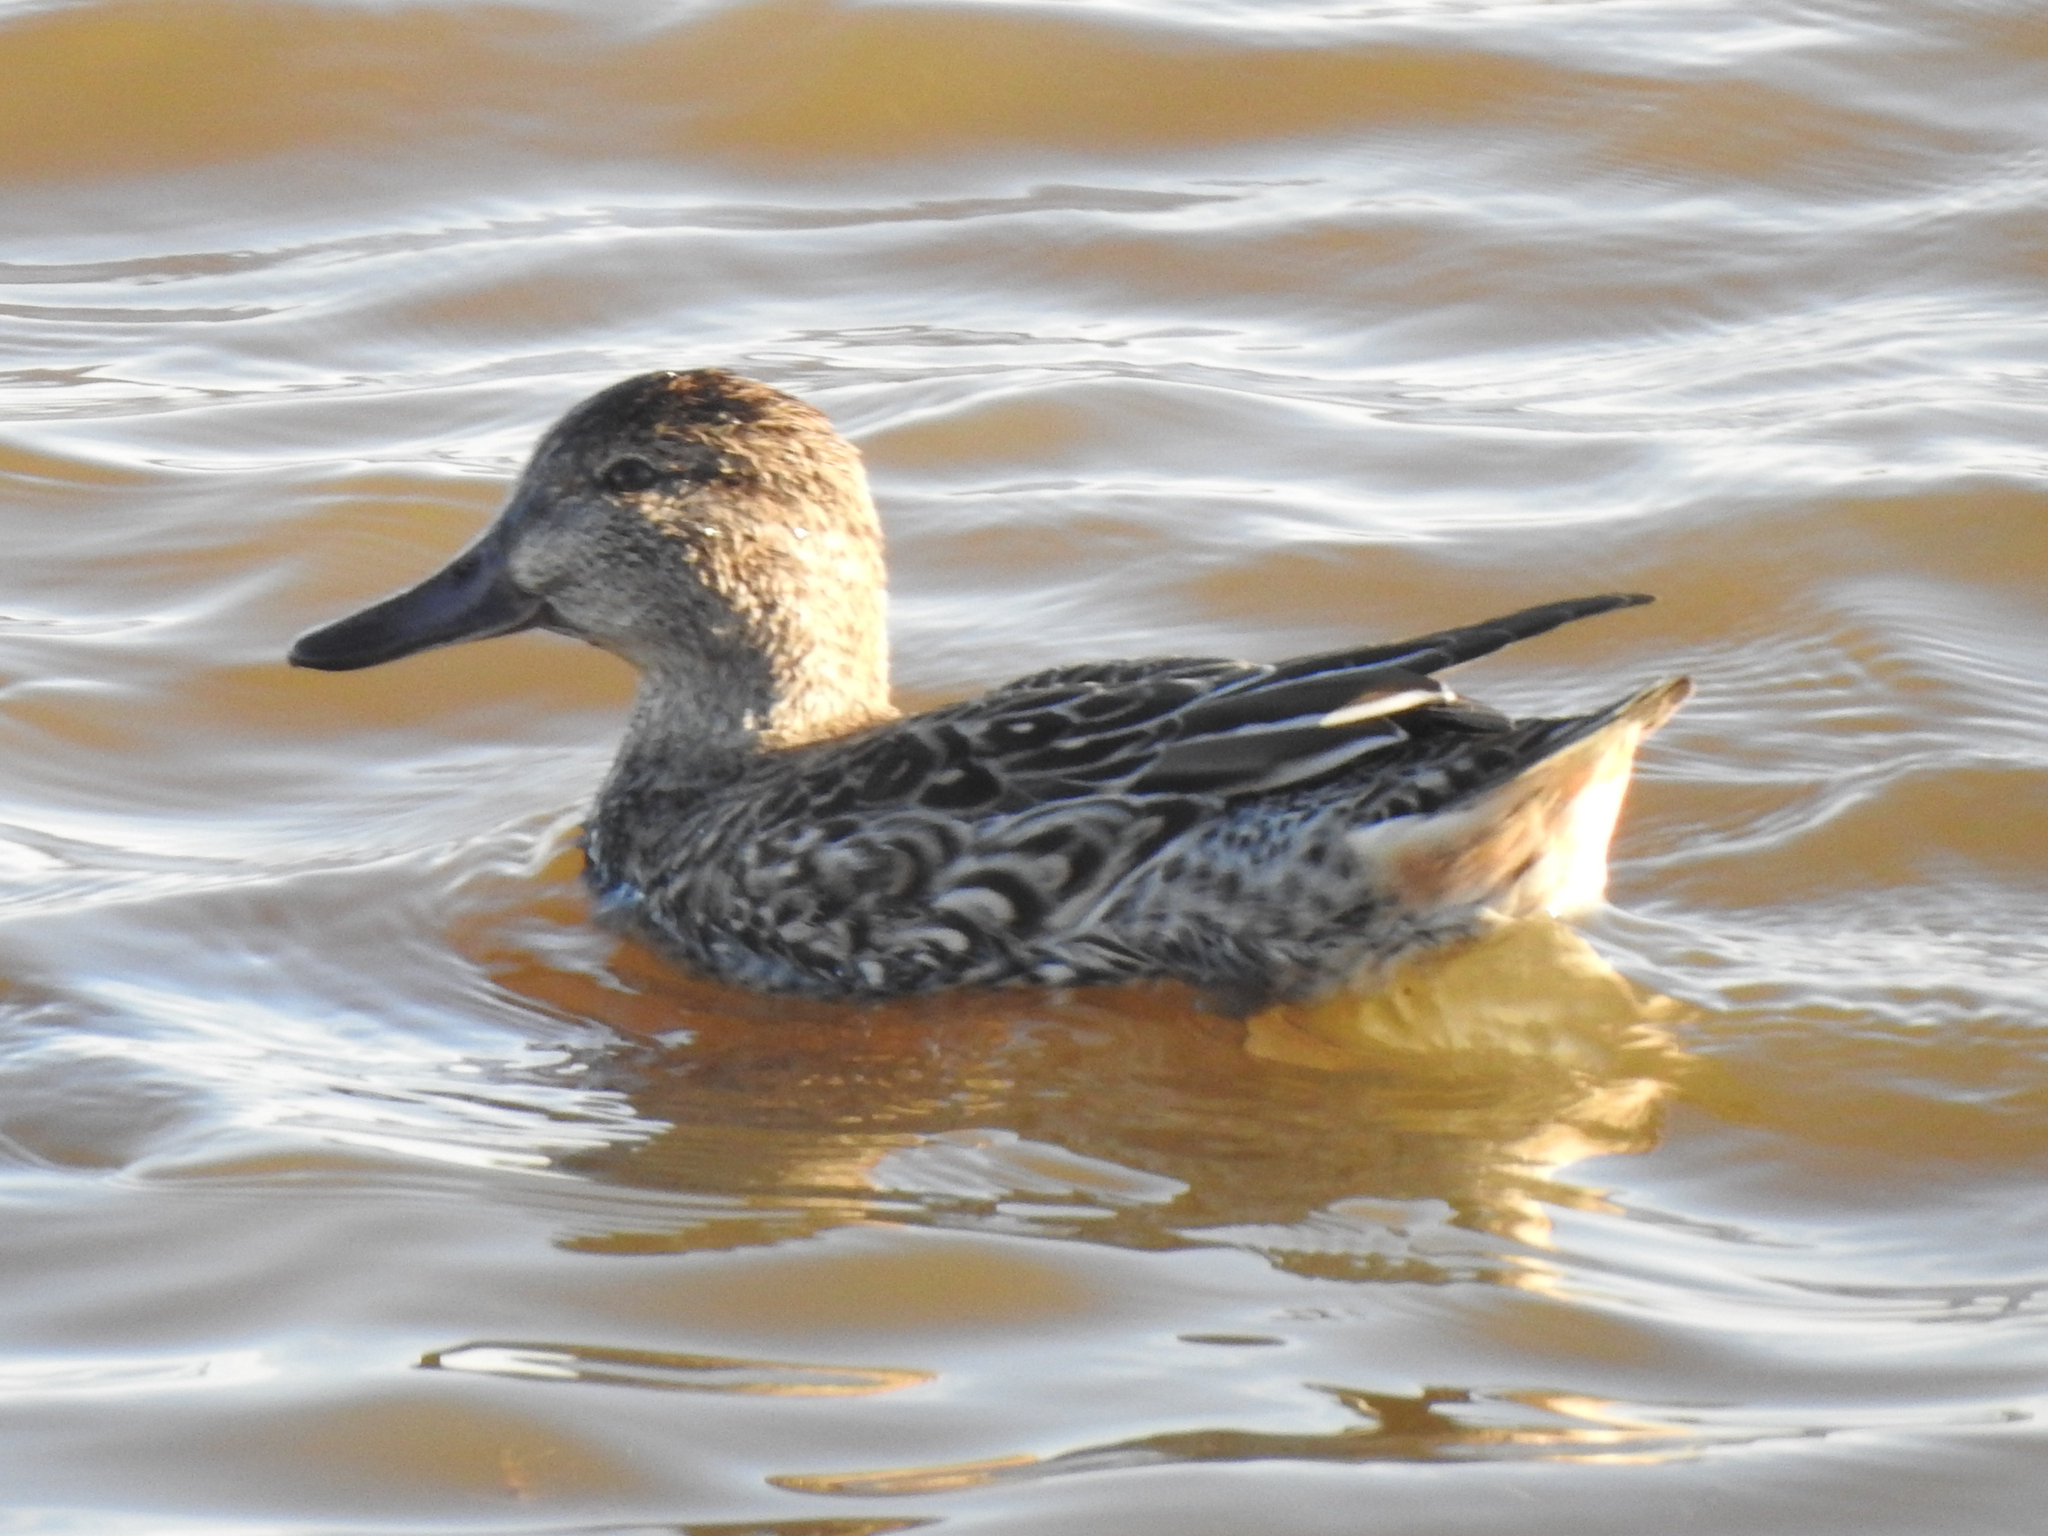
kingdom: Animalia
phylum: Chordata
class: Aves
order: Anseriformes
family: Anatidae
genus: Anas
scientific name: Anas crecca
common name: Eurasian teal
